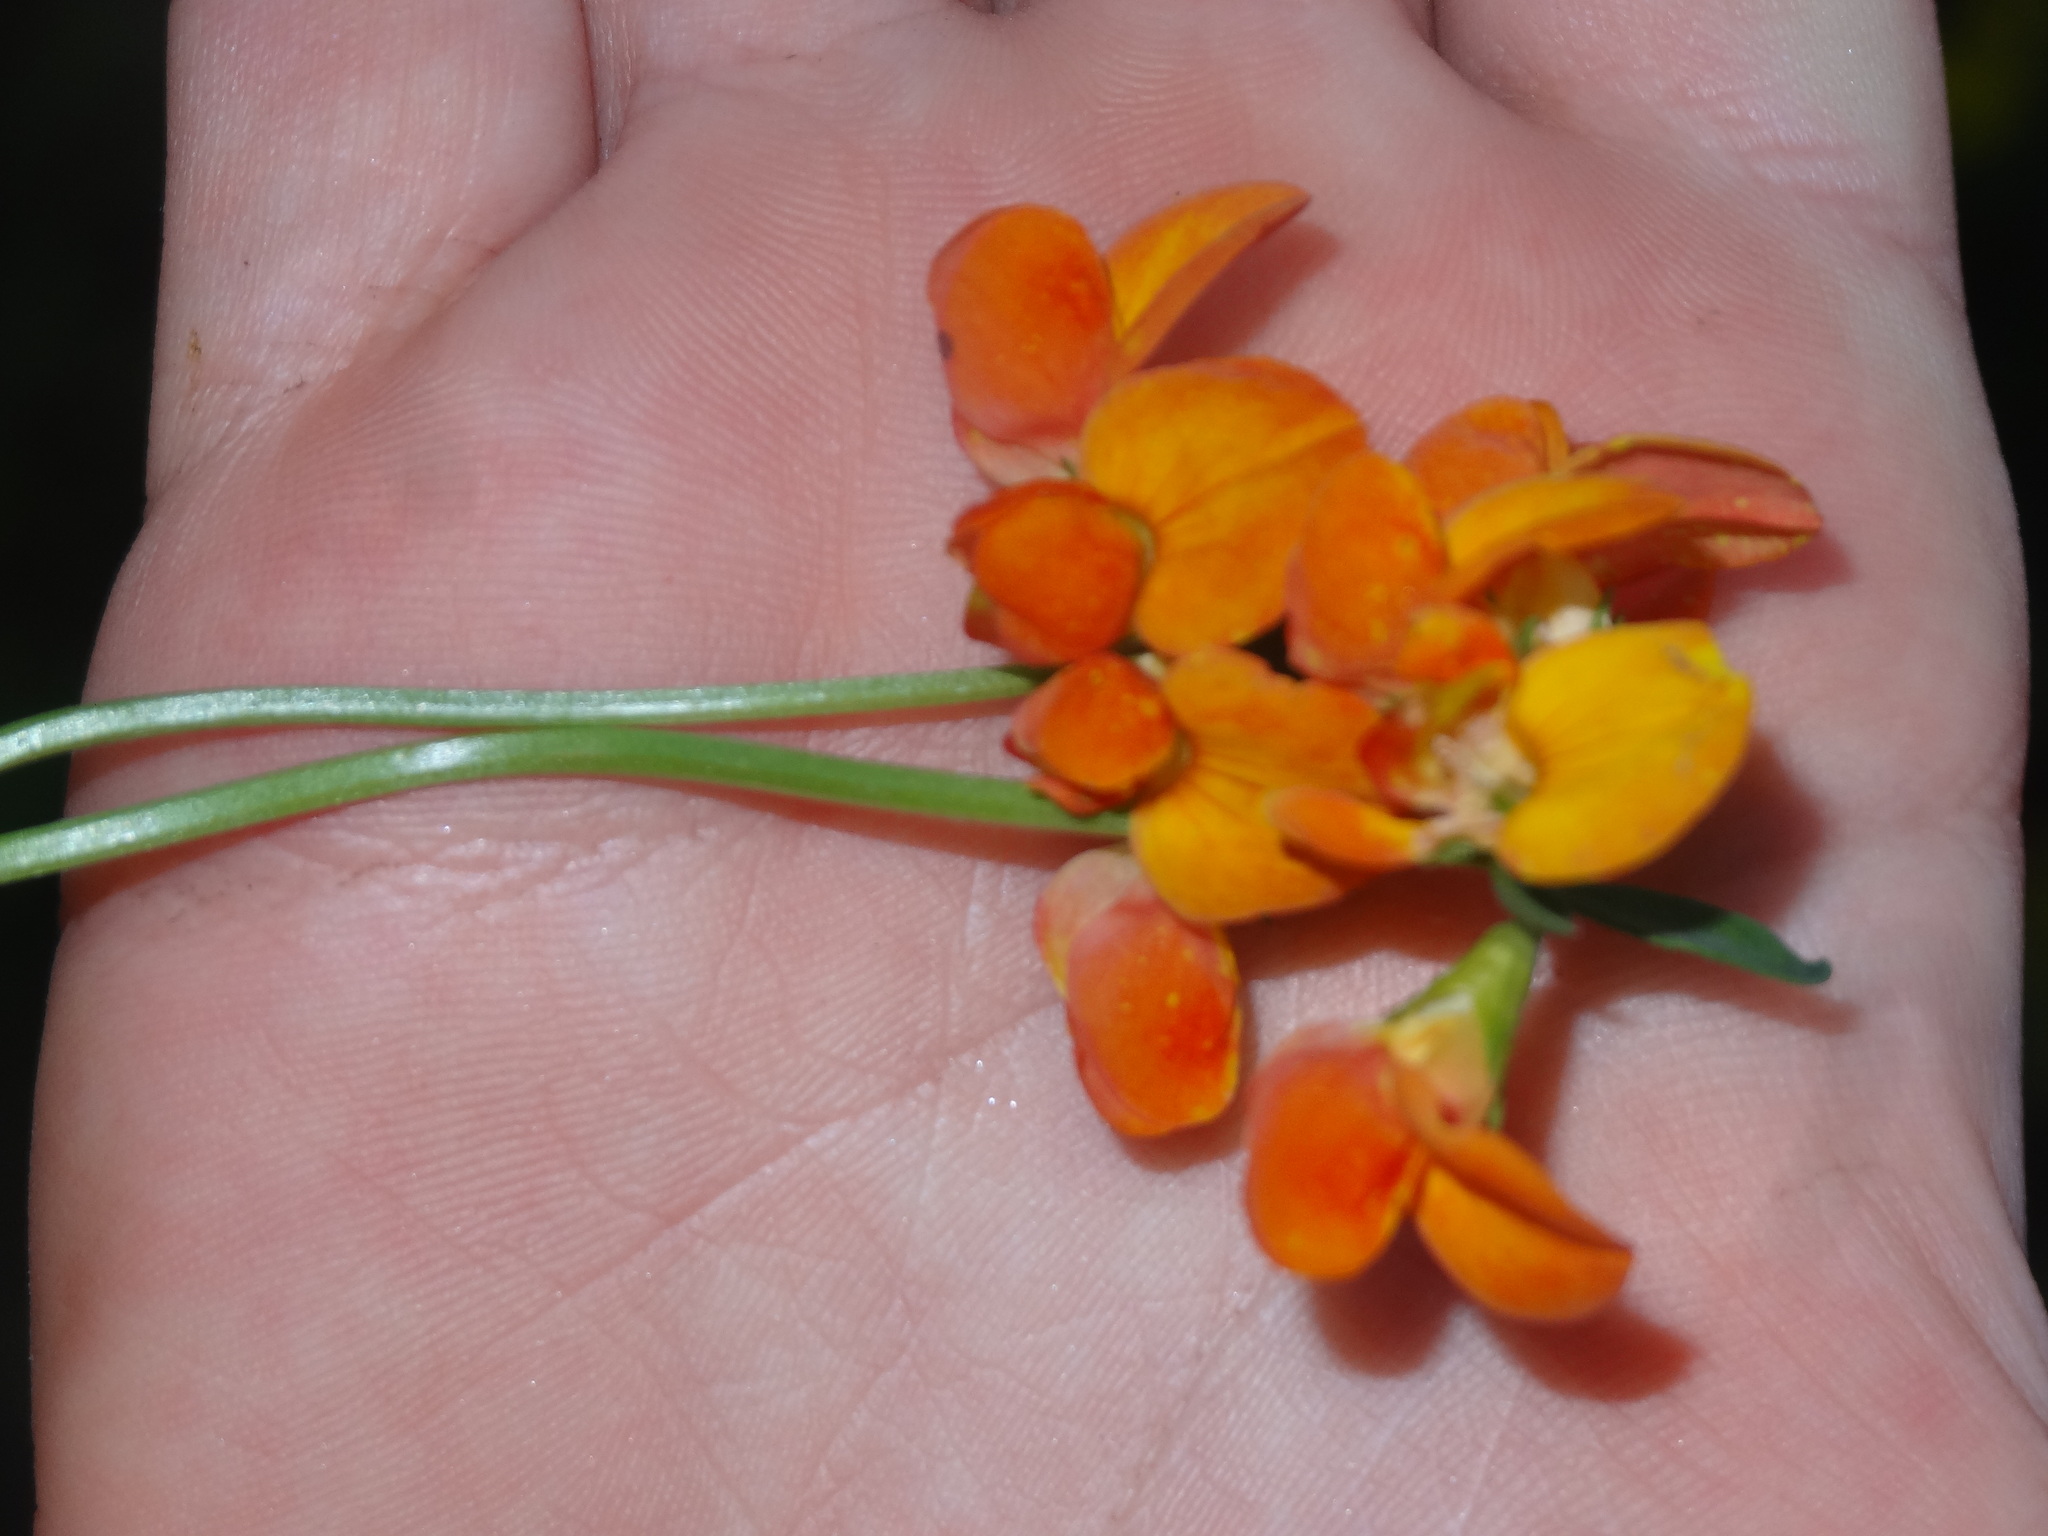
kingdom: Plantae
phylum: Tracheophyta
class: Magnoliopsida
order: Fabales
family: Fabaceae
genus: Lotus
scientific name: Lotus corniculatus
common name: Common bird's-foot-trefoil
